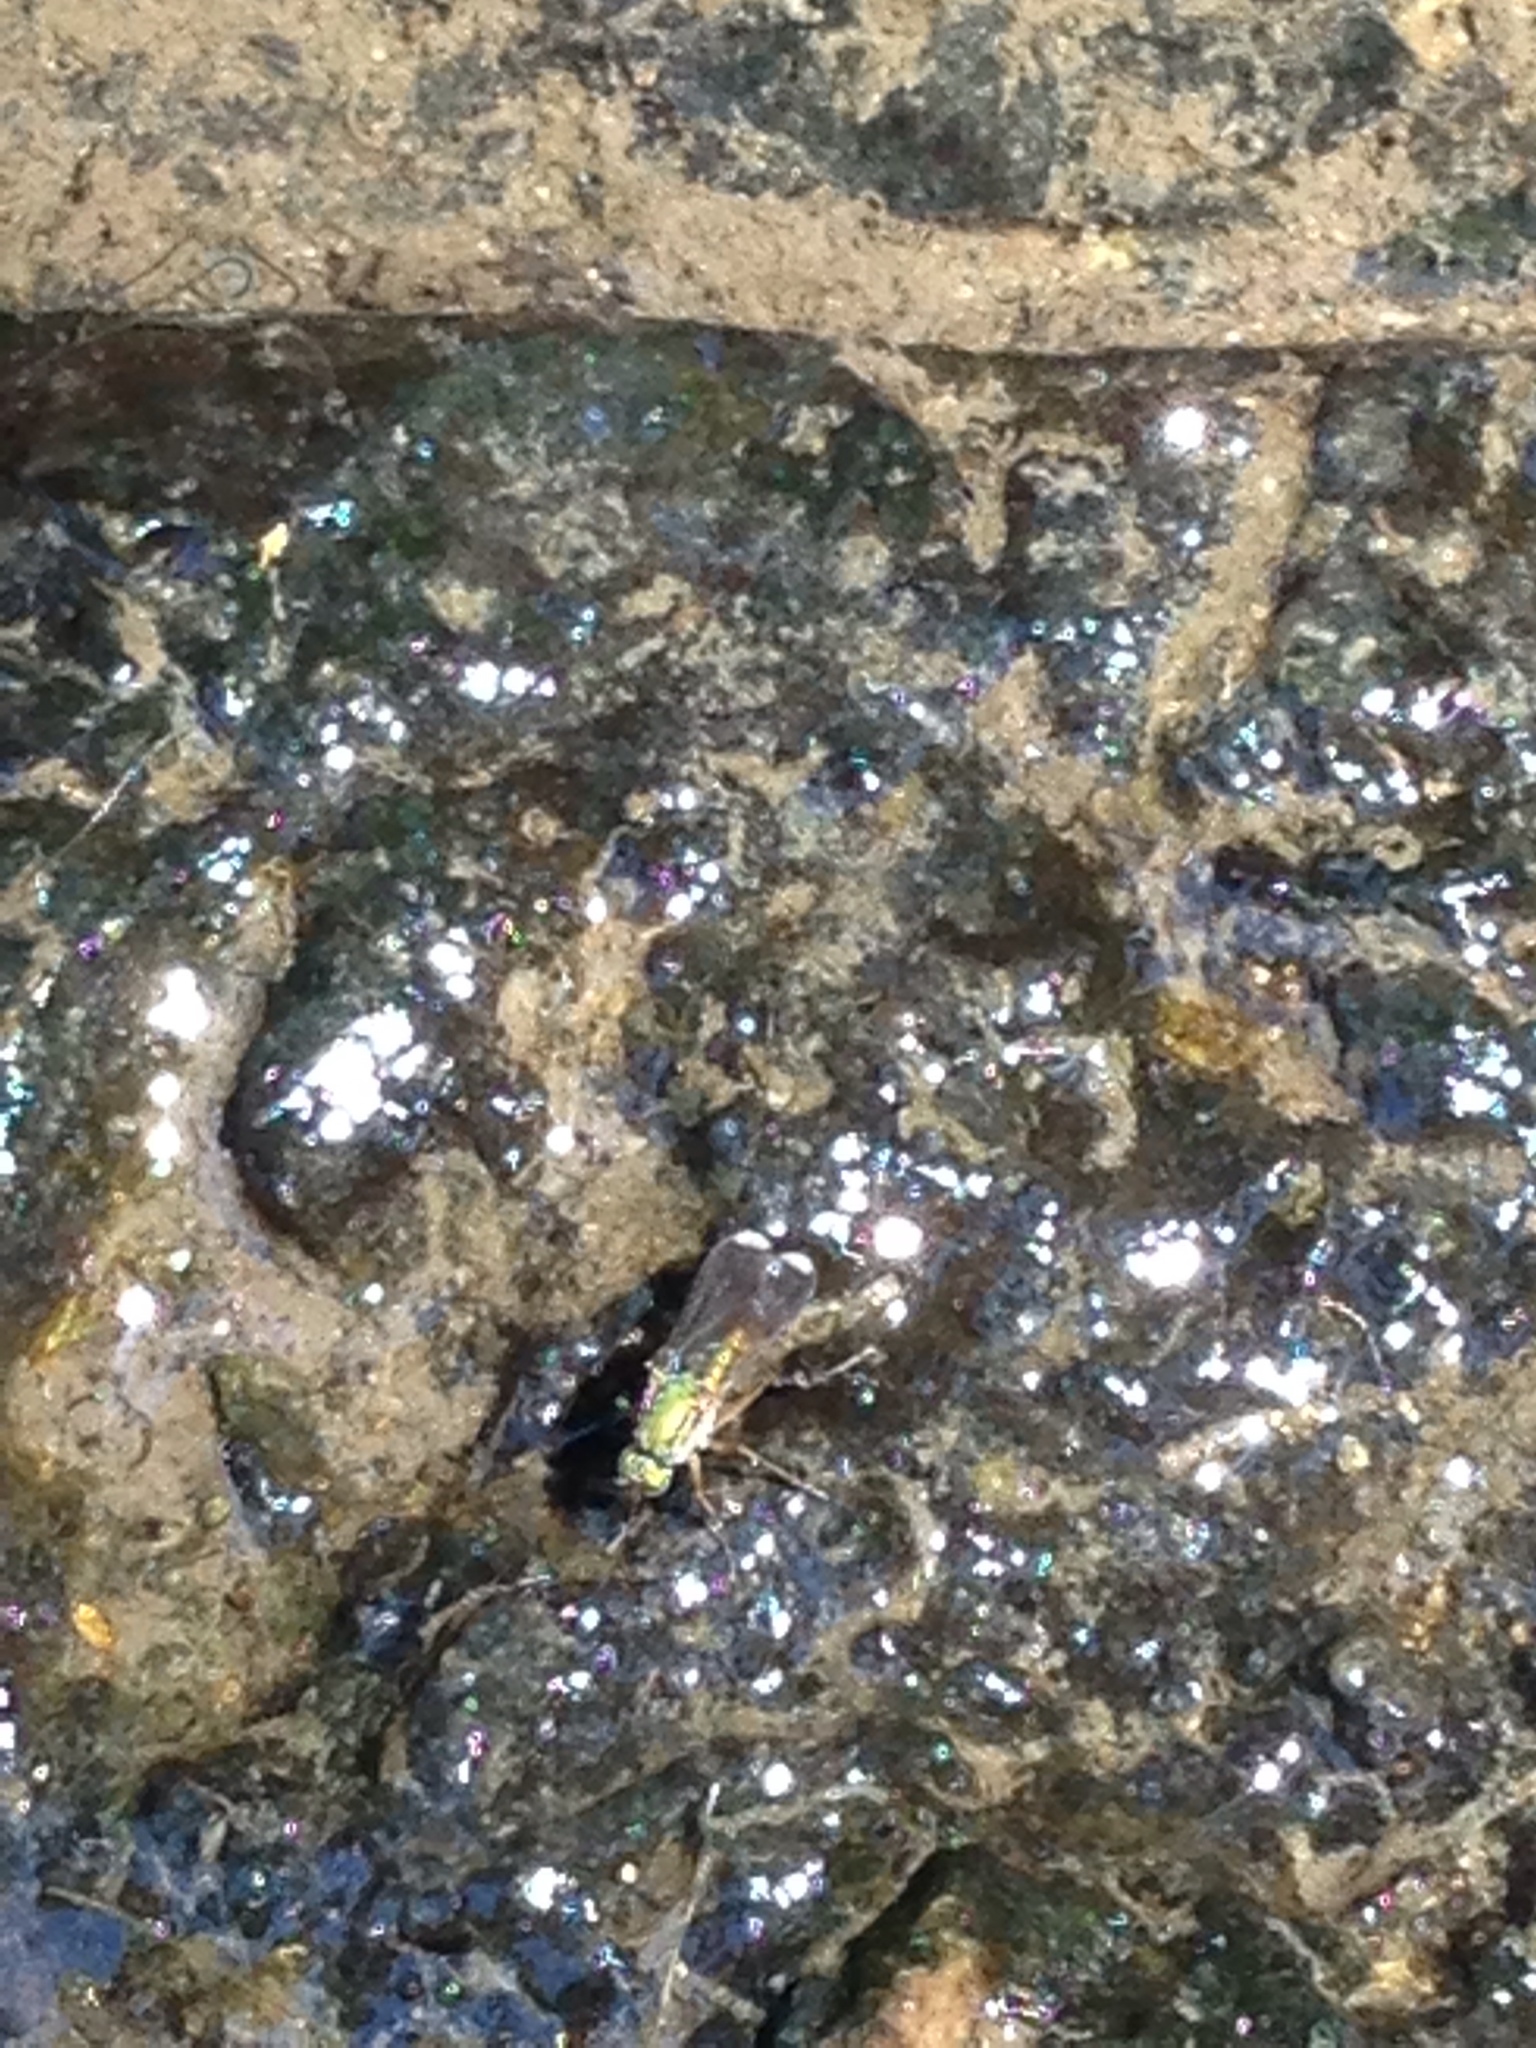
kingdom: Animalia
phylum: Arthropoda
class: Insecta
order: Diptera
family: Dolichopodidae
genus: Poecilobothrus
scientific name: Poecilobothrus nobilitatus
